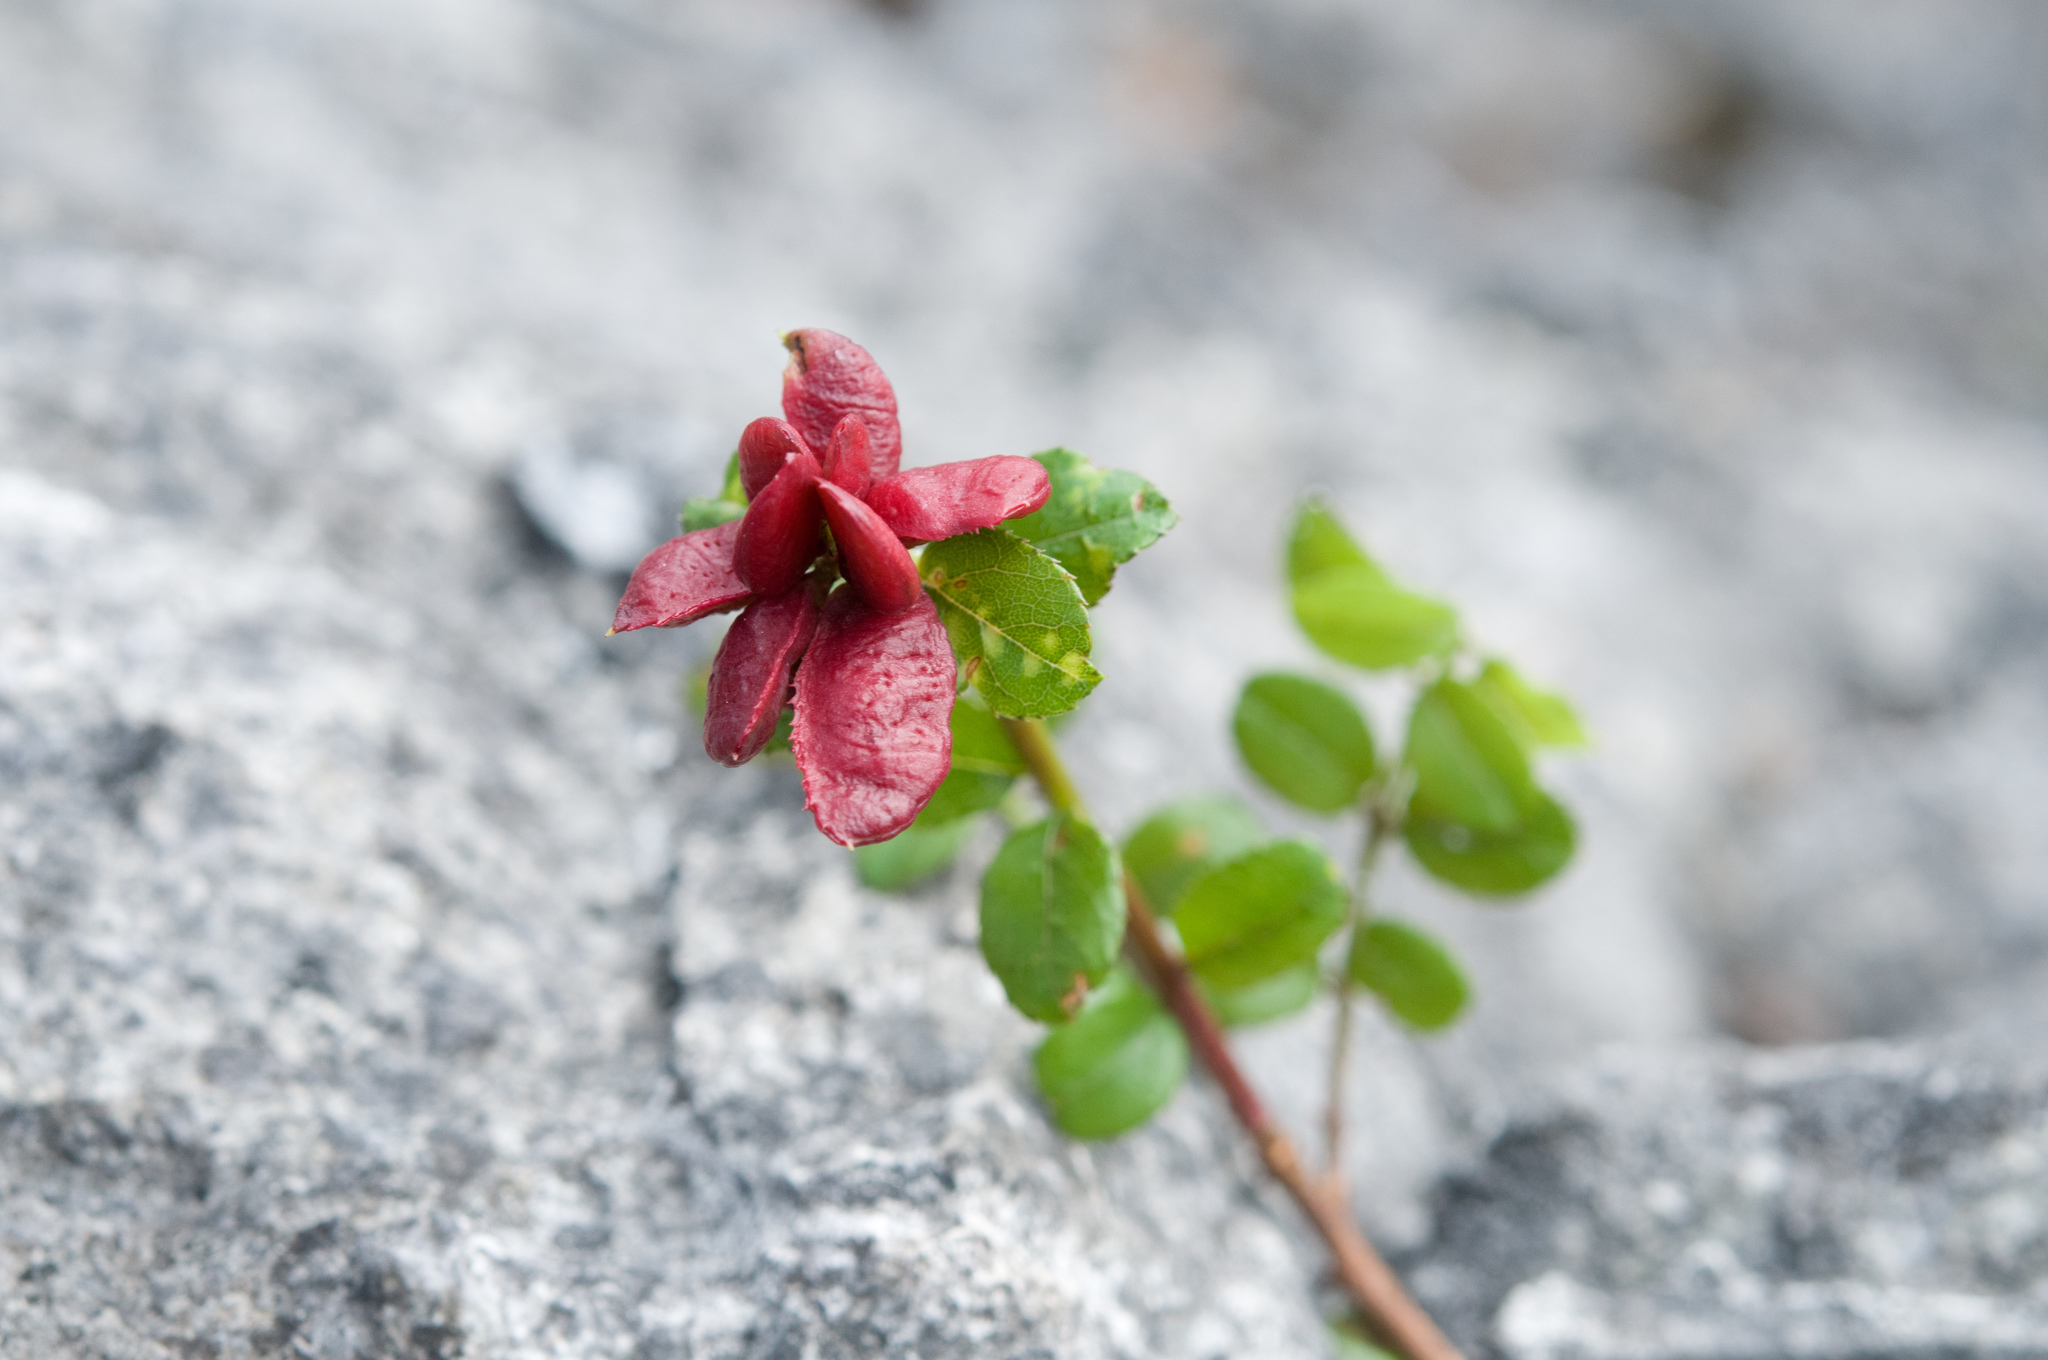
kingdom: Plantae
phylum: Tracheophyta
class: Magnoliopsida
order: Rosales
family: Rhamnaceae
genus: Sageretia
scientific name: Sageretia thea
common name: Pauper's-tea
